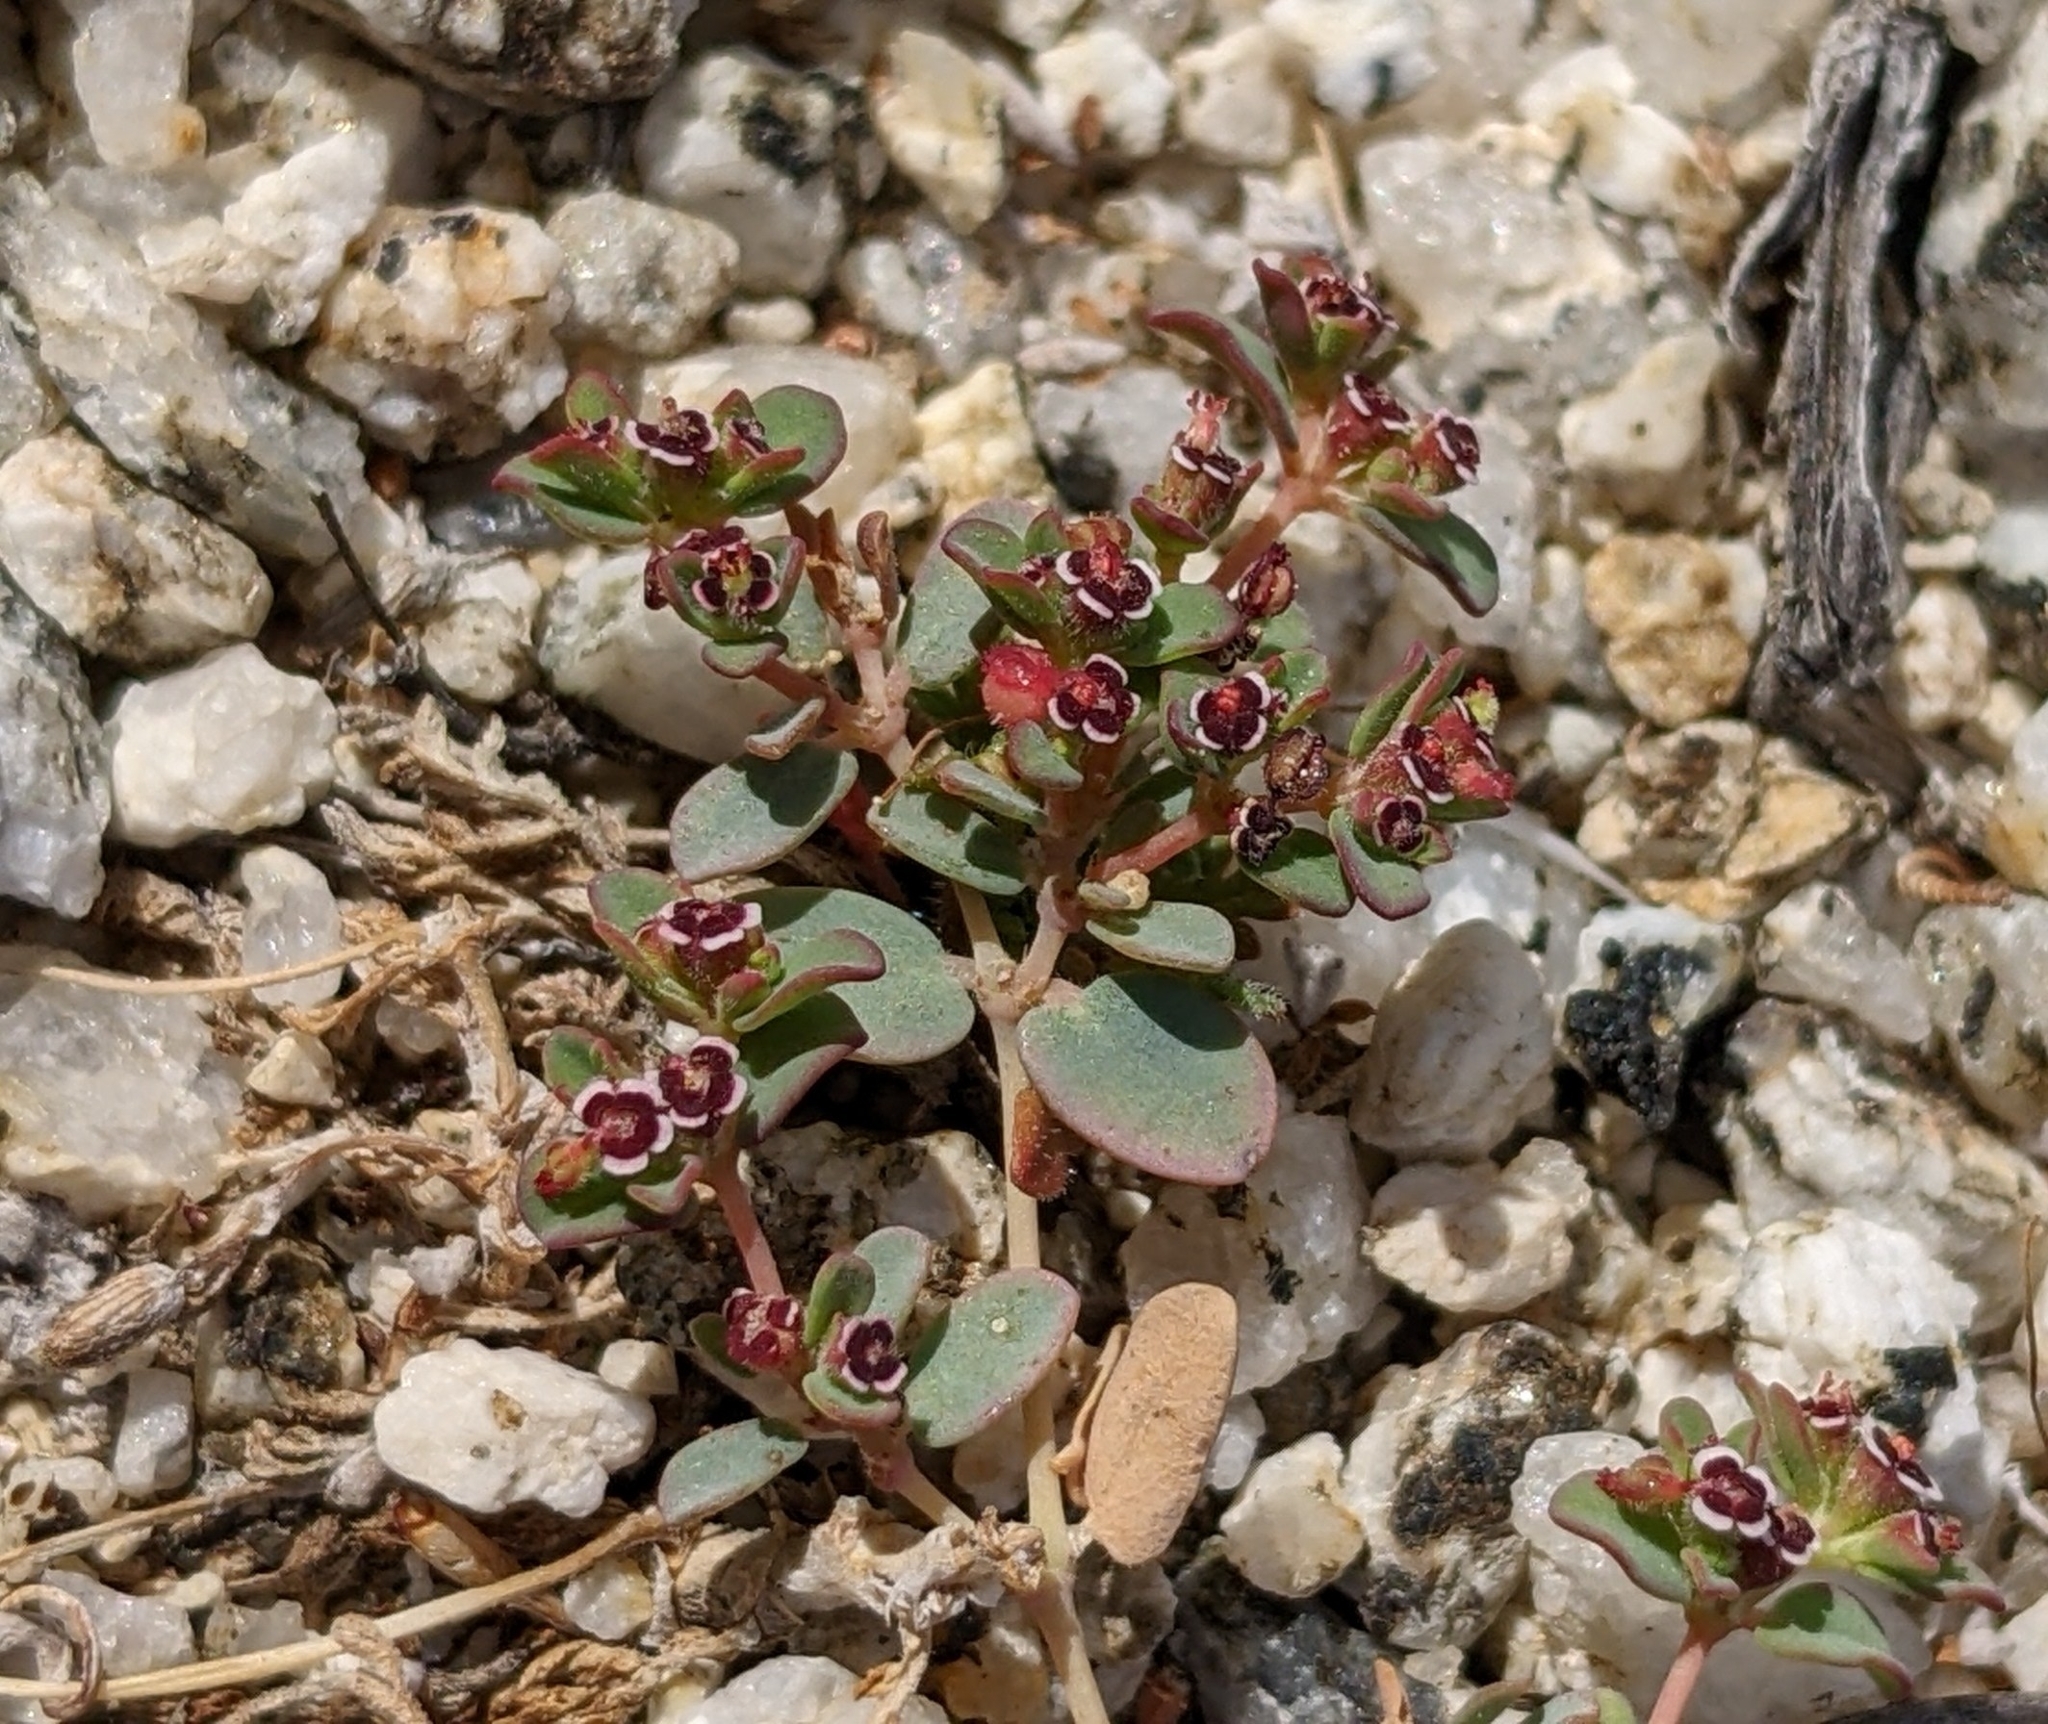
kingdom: Plantae
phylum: Tracheophyta
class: Magnoliopsida
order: Malpighiales
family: Euphorbiaceae
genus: Euphorbia
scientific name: Euphorbia polycarpa
